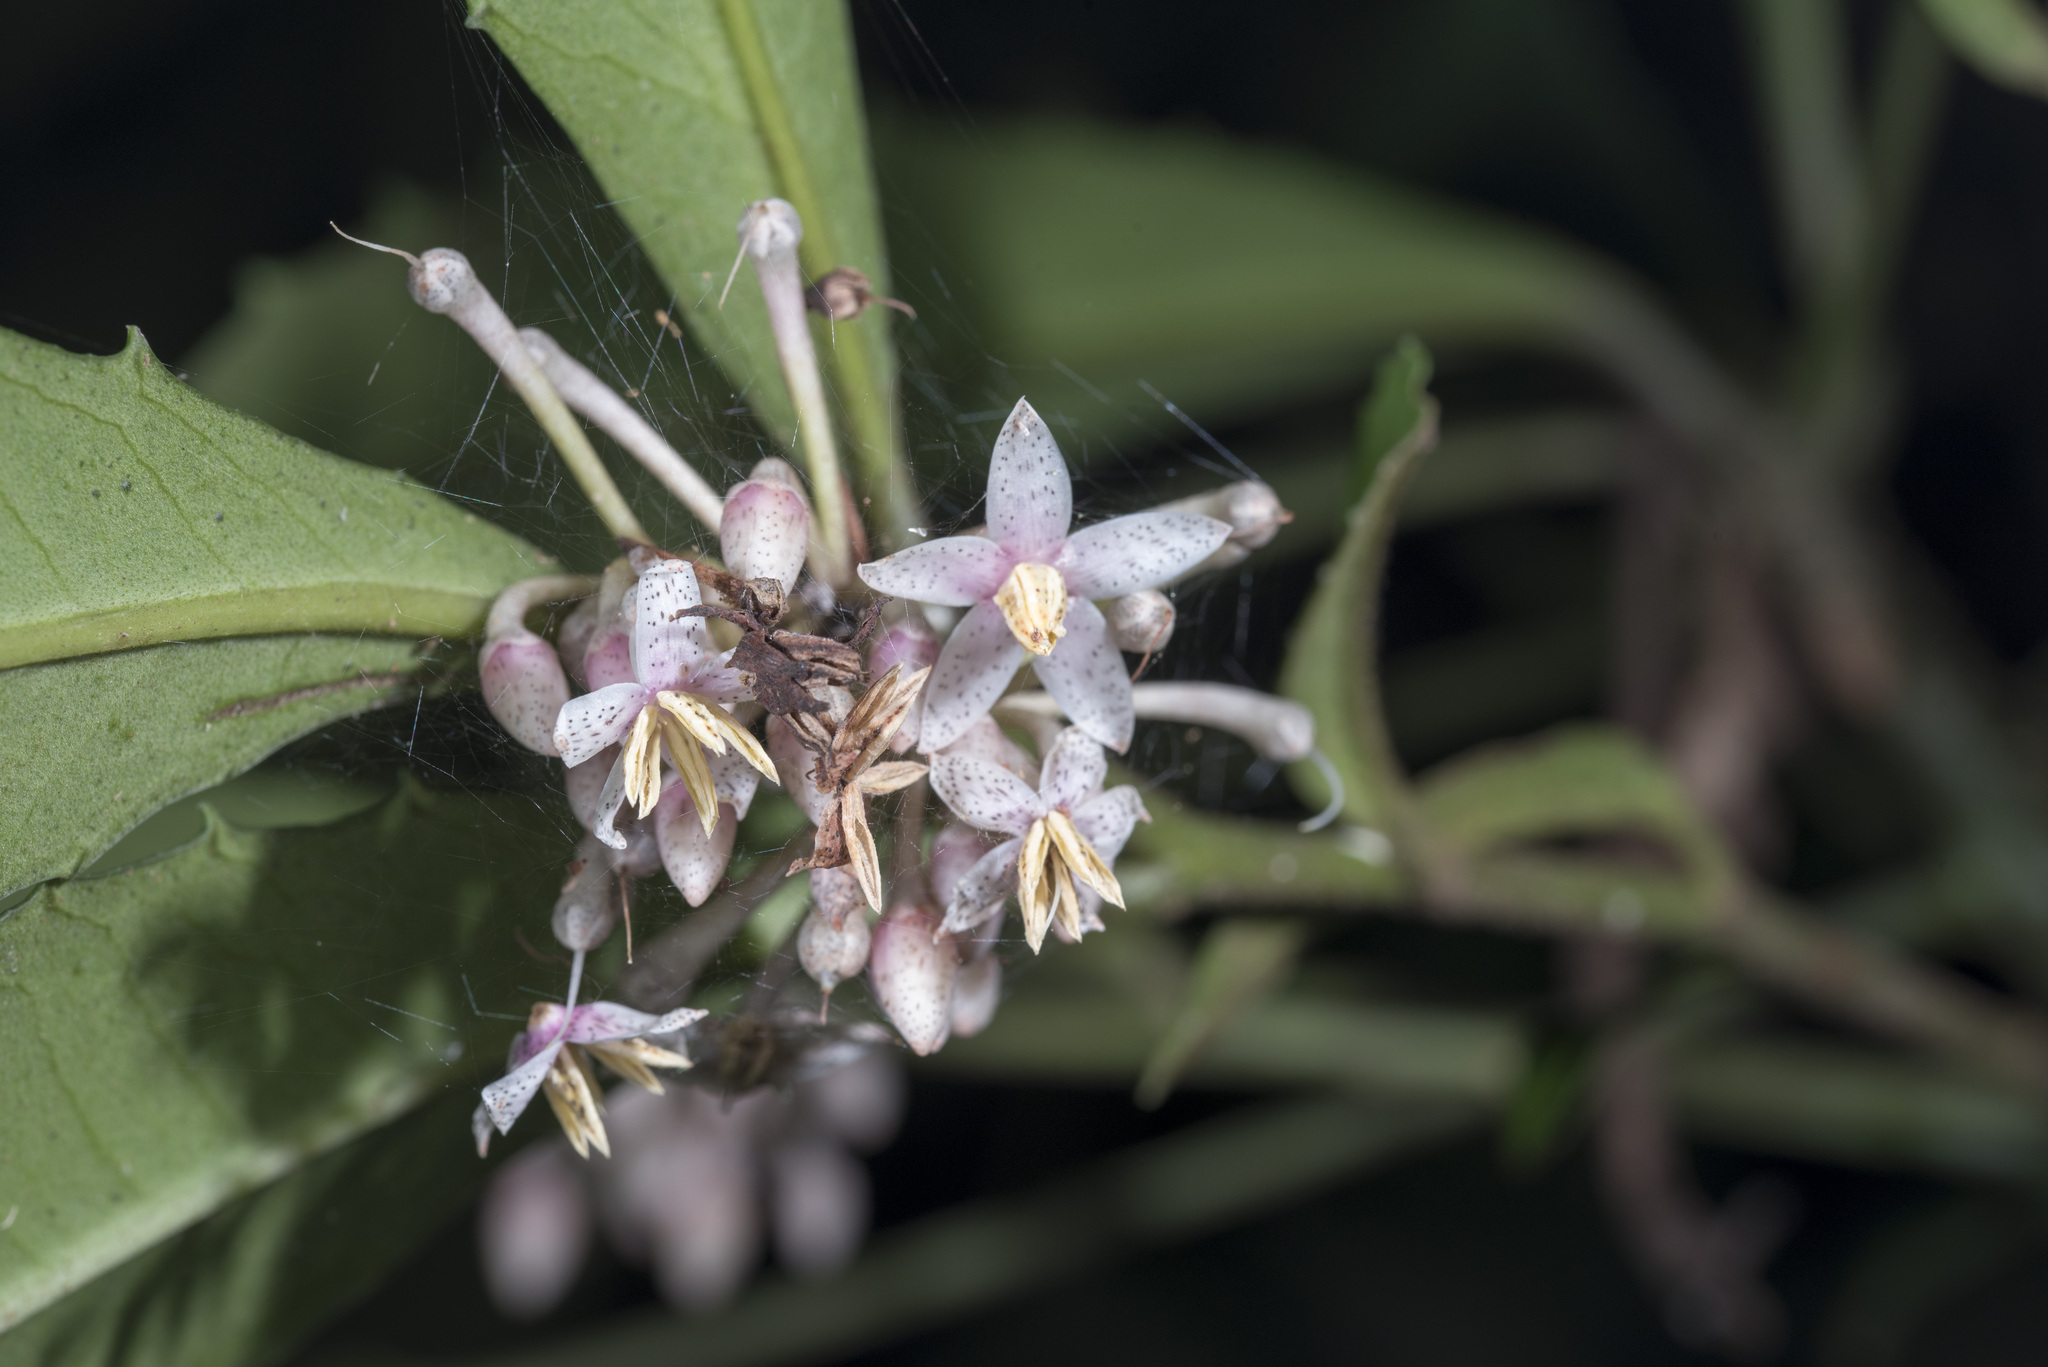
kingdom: Plantae
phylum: Tracheophyta
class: Magnoliopsida
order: Ericales
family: Primulaceae
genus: Ardisia
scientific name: Ardisia cornudentata
